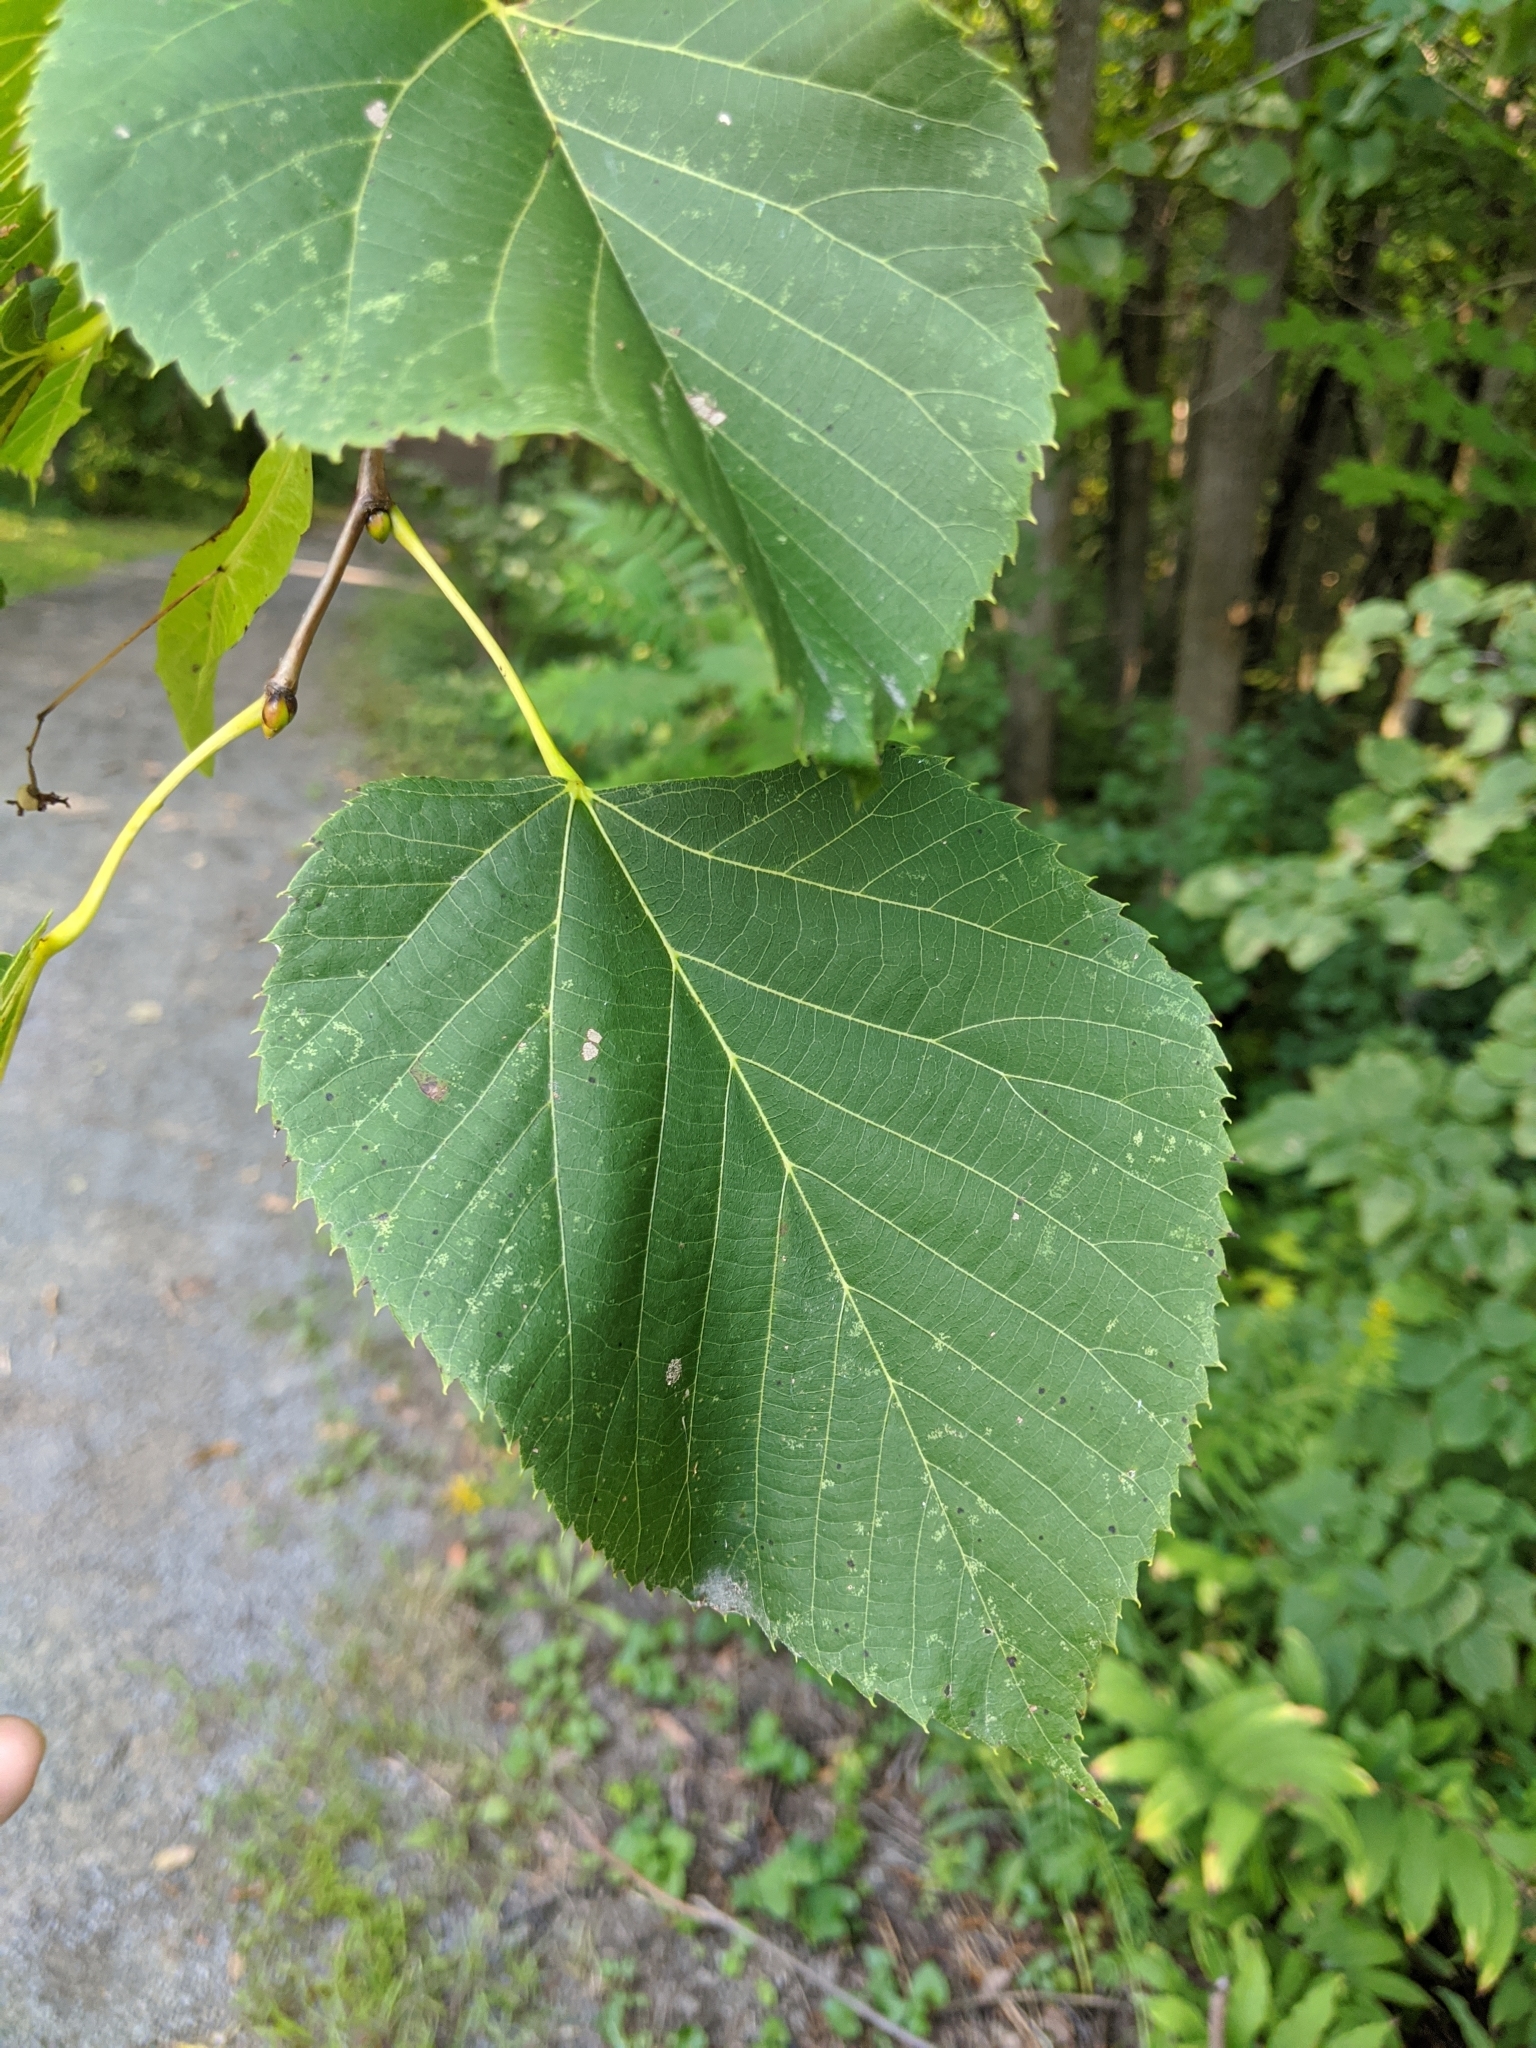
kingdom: Plantae
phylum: Tracheophyta
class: Magnoliopsida
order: Malvales
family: Malvaceae
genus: Tilia
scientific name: Tilia americana
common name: Basswood
